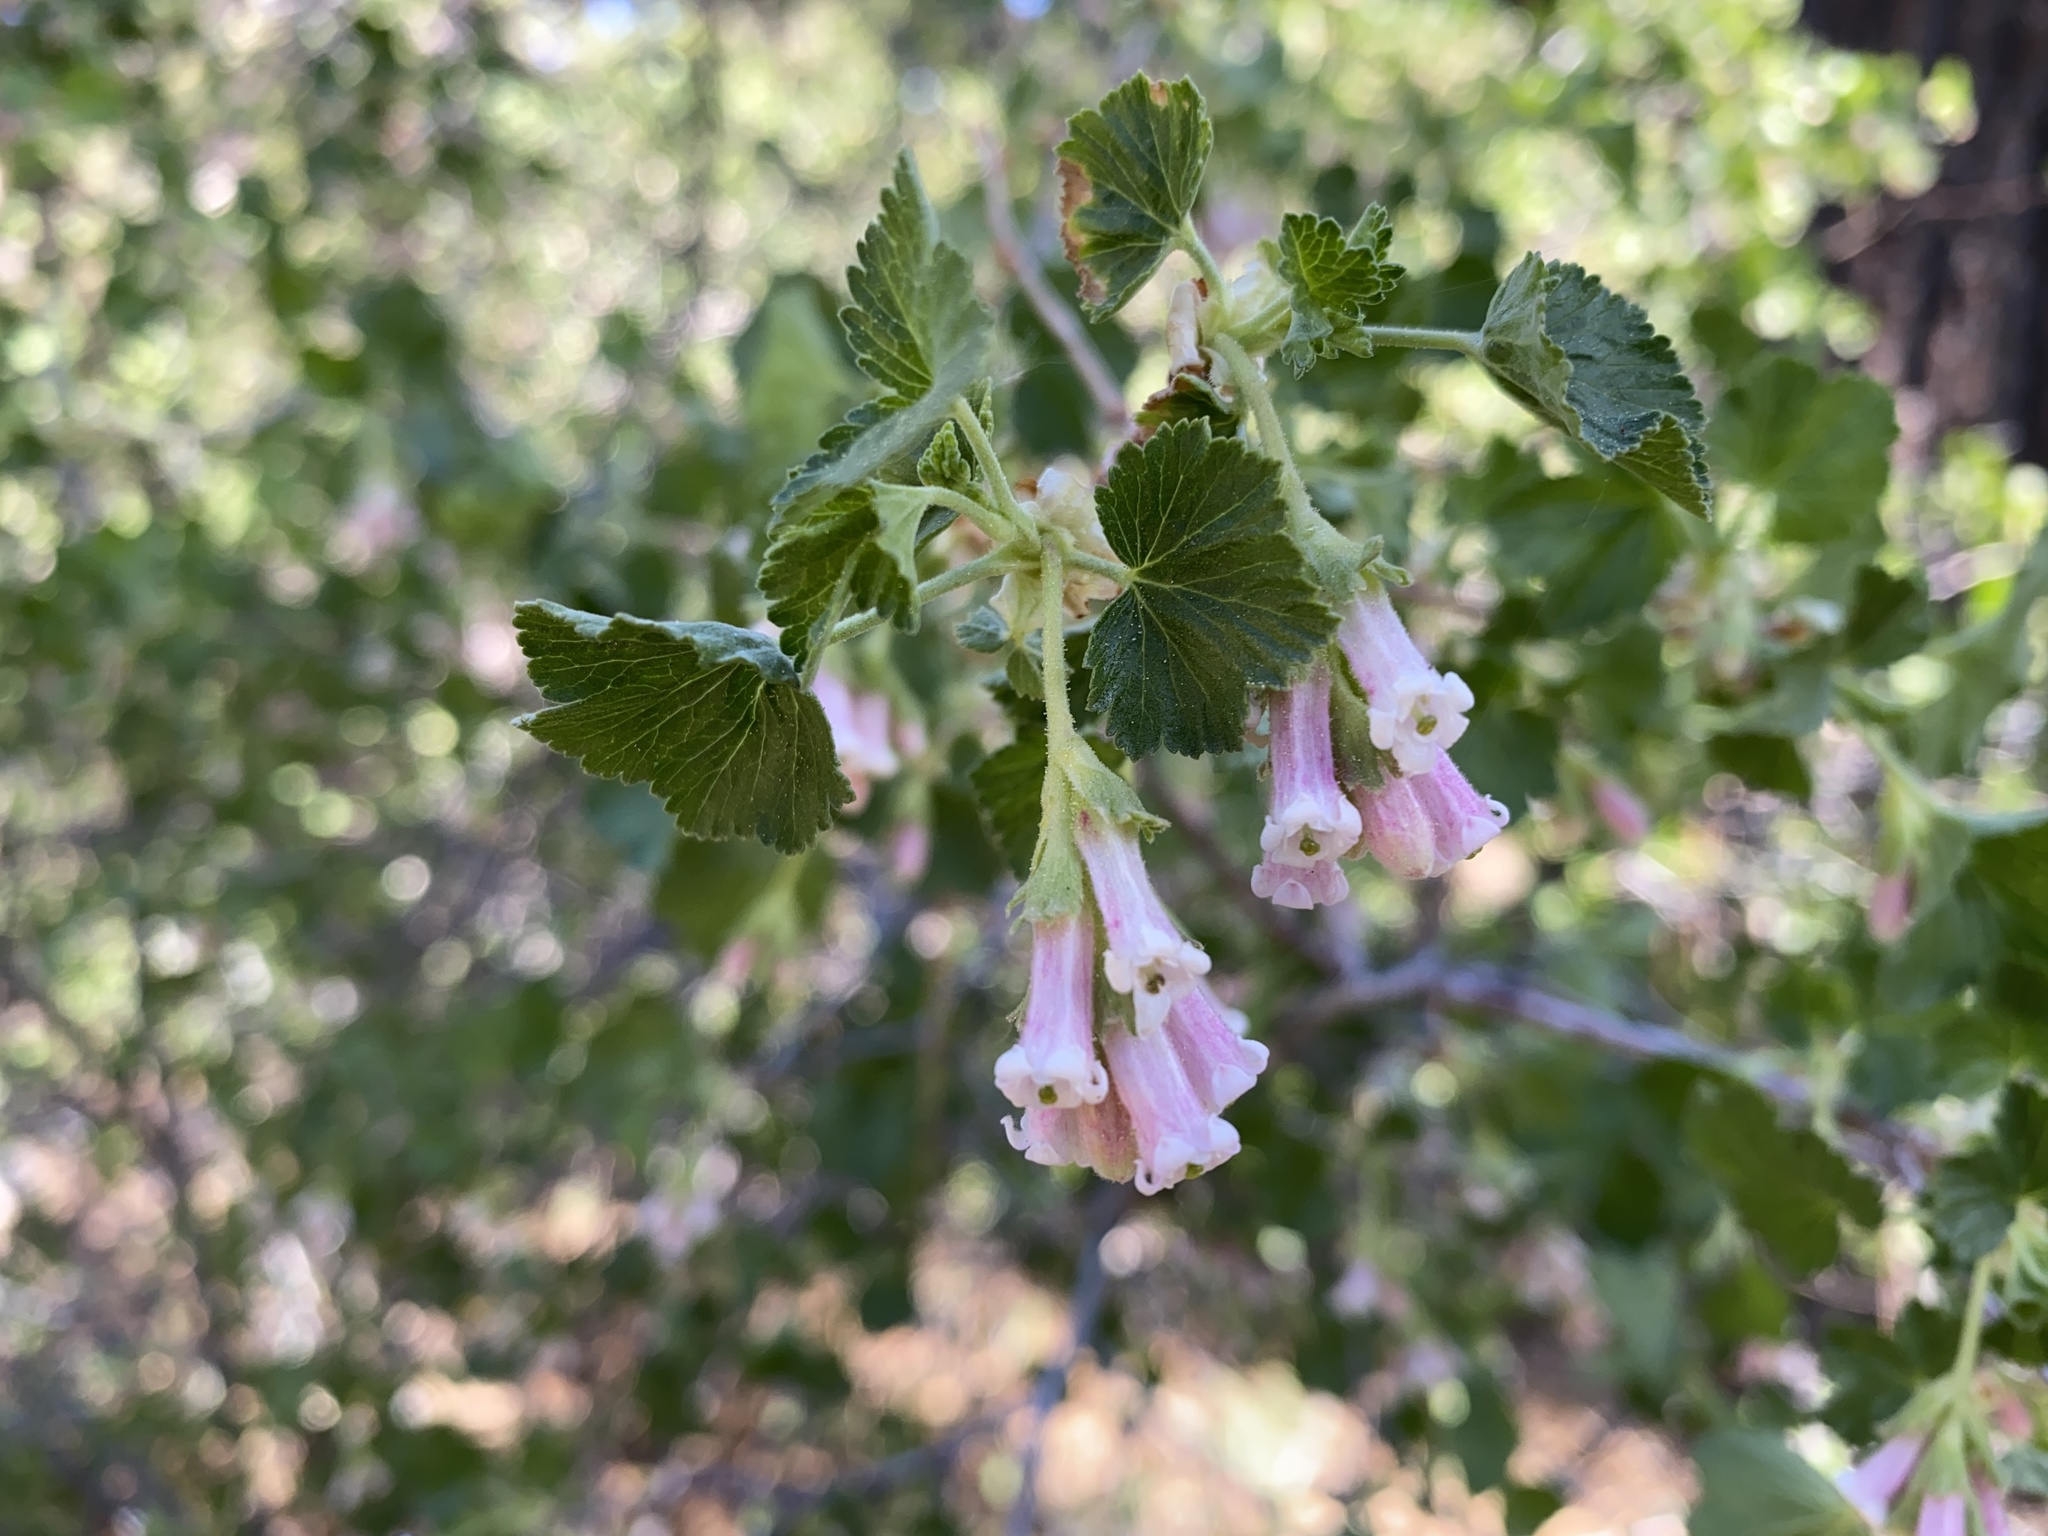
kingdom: Plantae
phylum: Tracheophyta
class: Magnoliopsida
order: Saxifragales
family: Grossulariaceae
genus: Ribes
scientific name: Ribes cereum
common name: Wax currant
